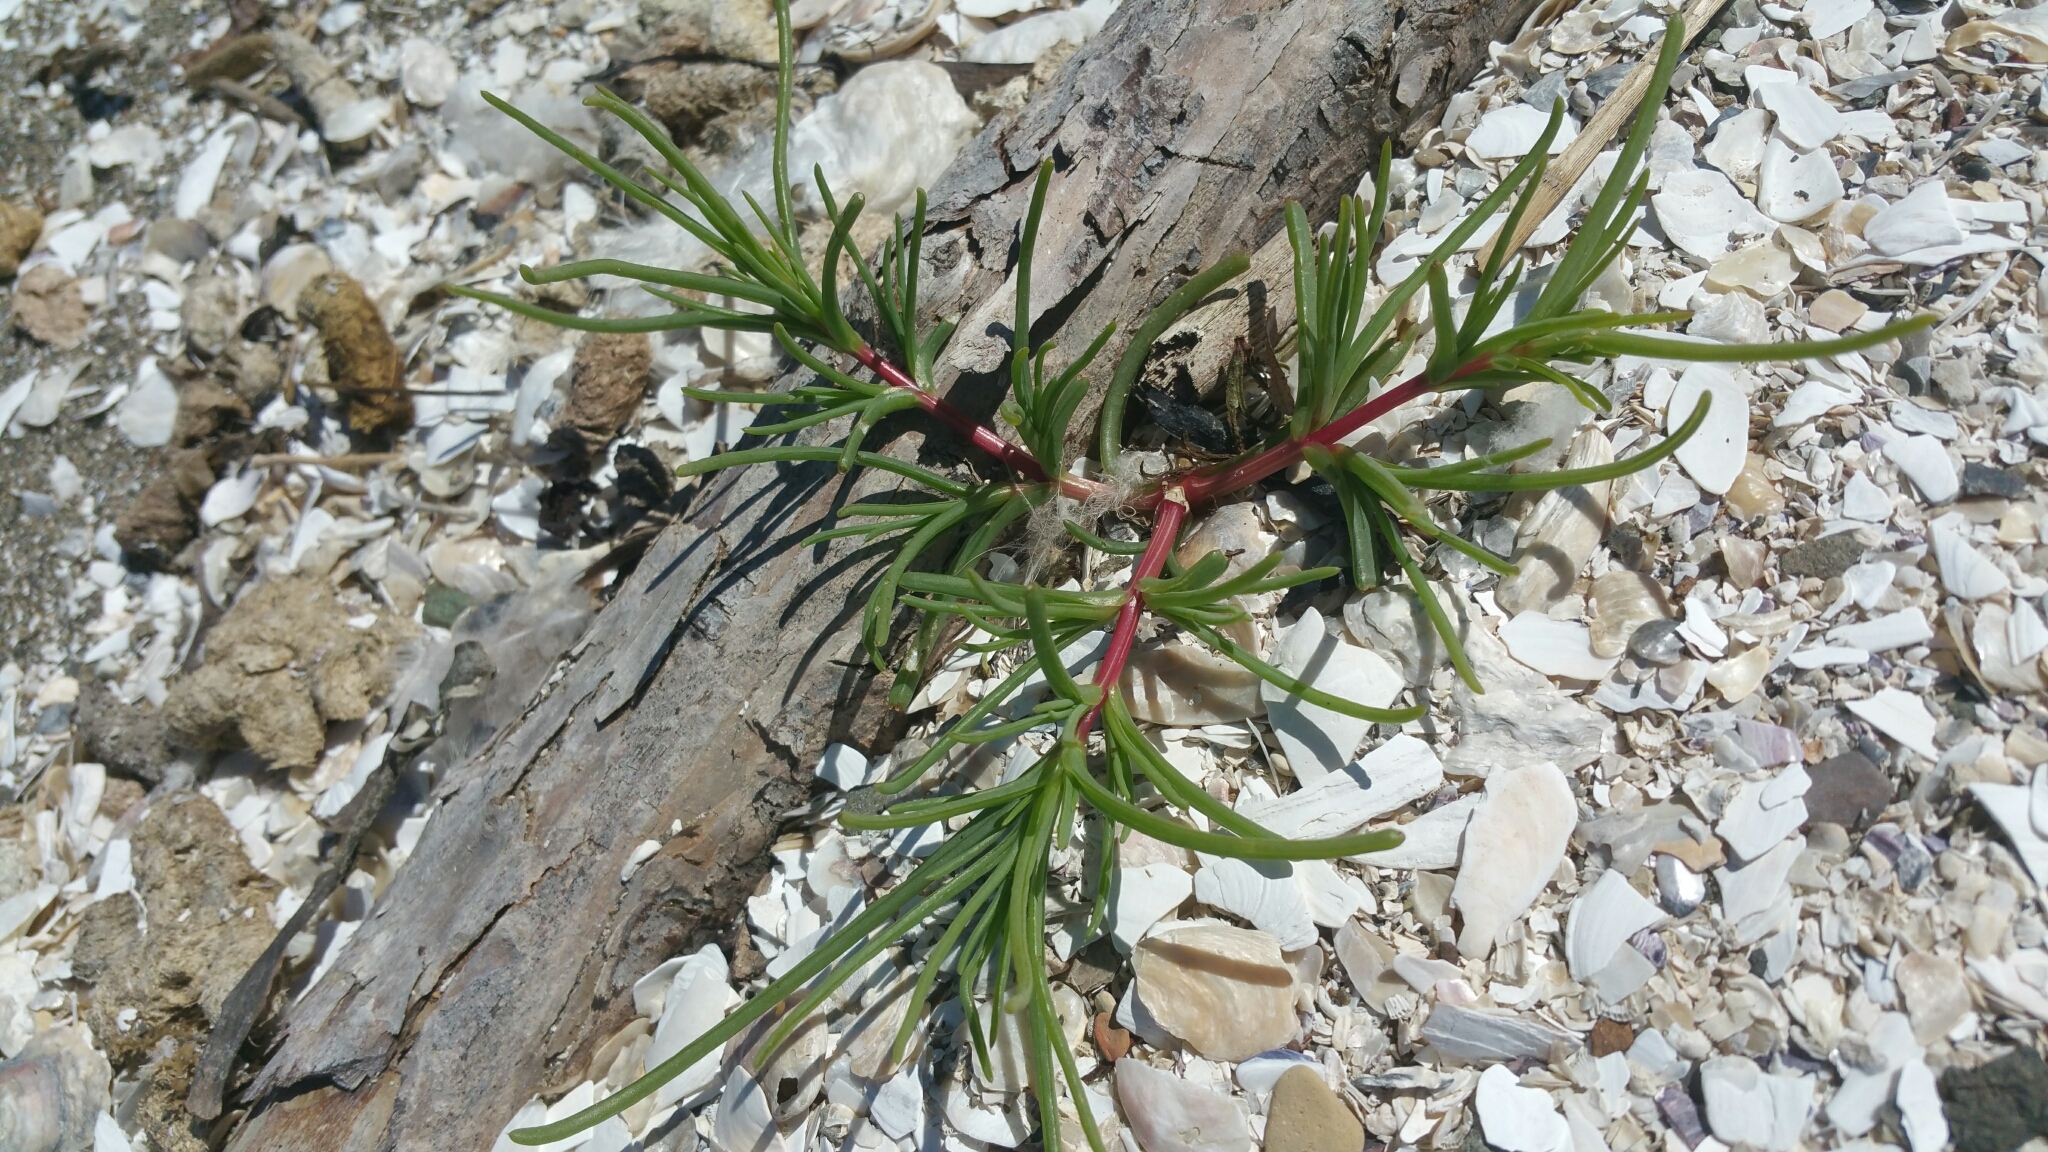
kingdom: Plantae
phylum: Tracheophyta
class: Magnoliopsida
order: Caryophyllales
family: Amaranthaceae
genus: Salsola
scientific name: Salsola soda
